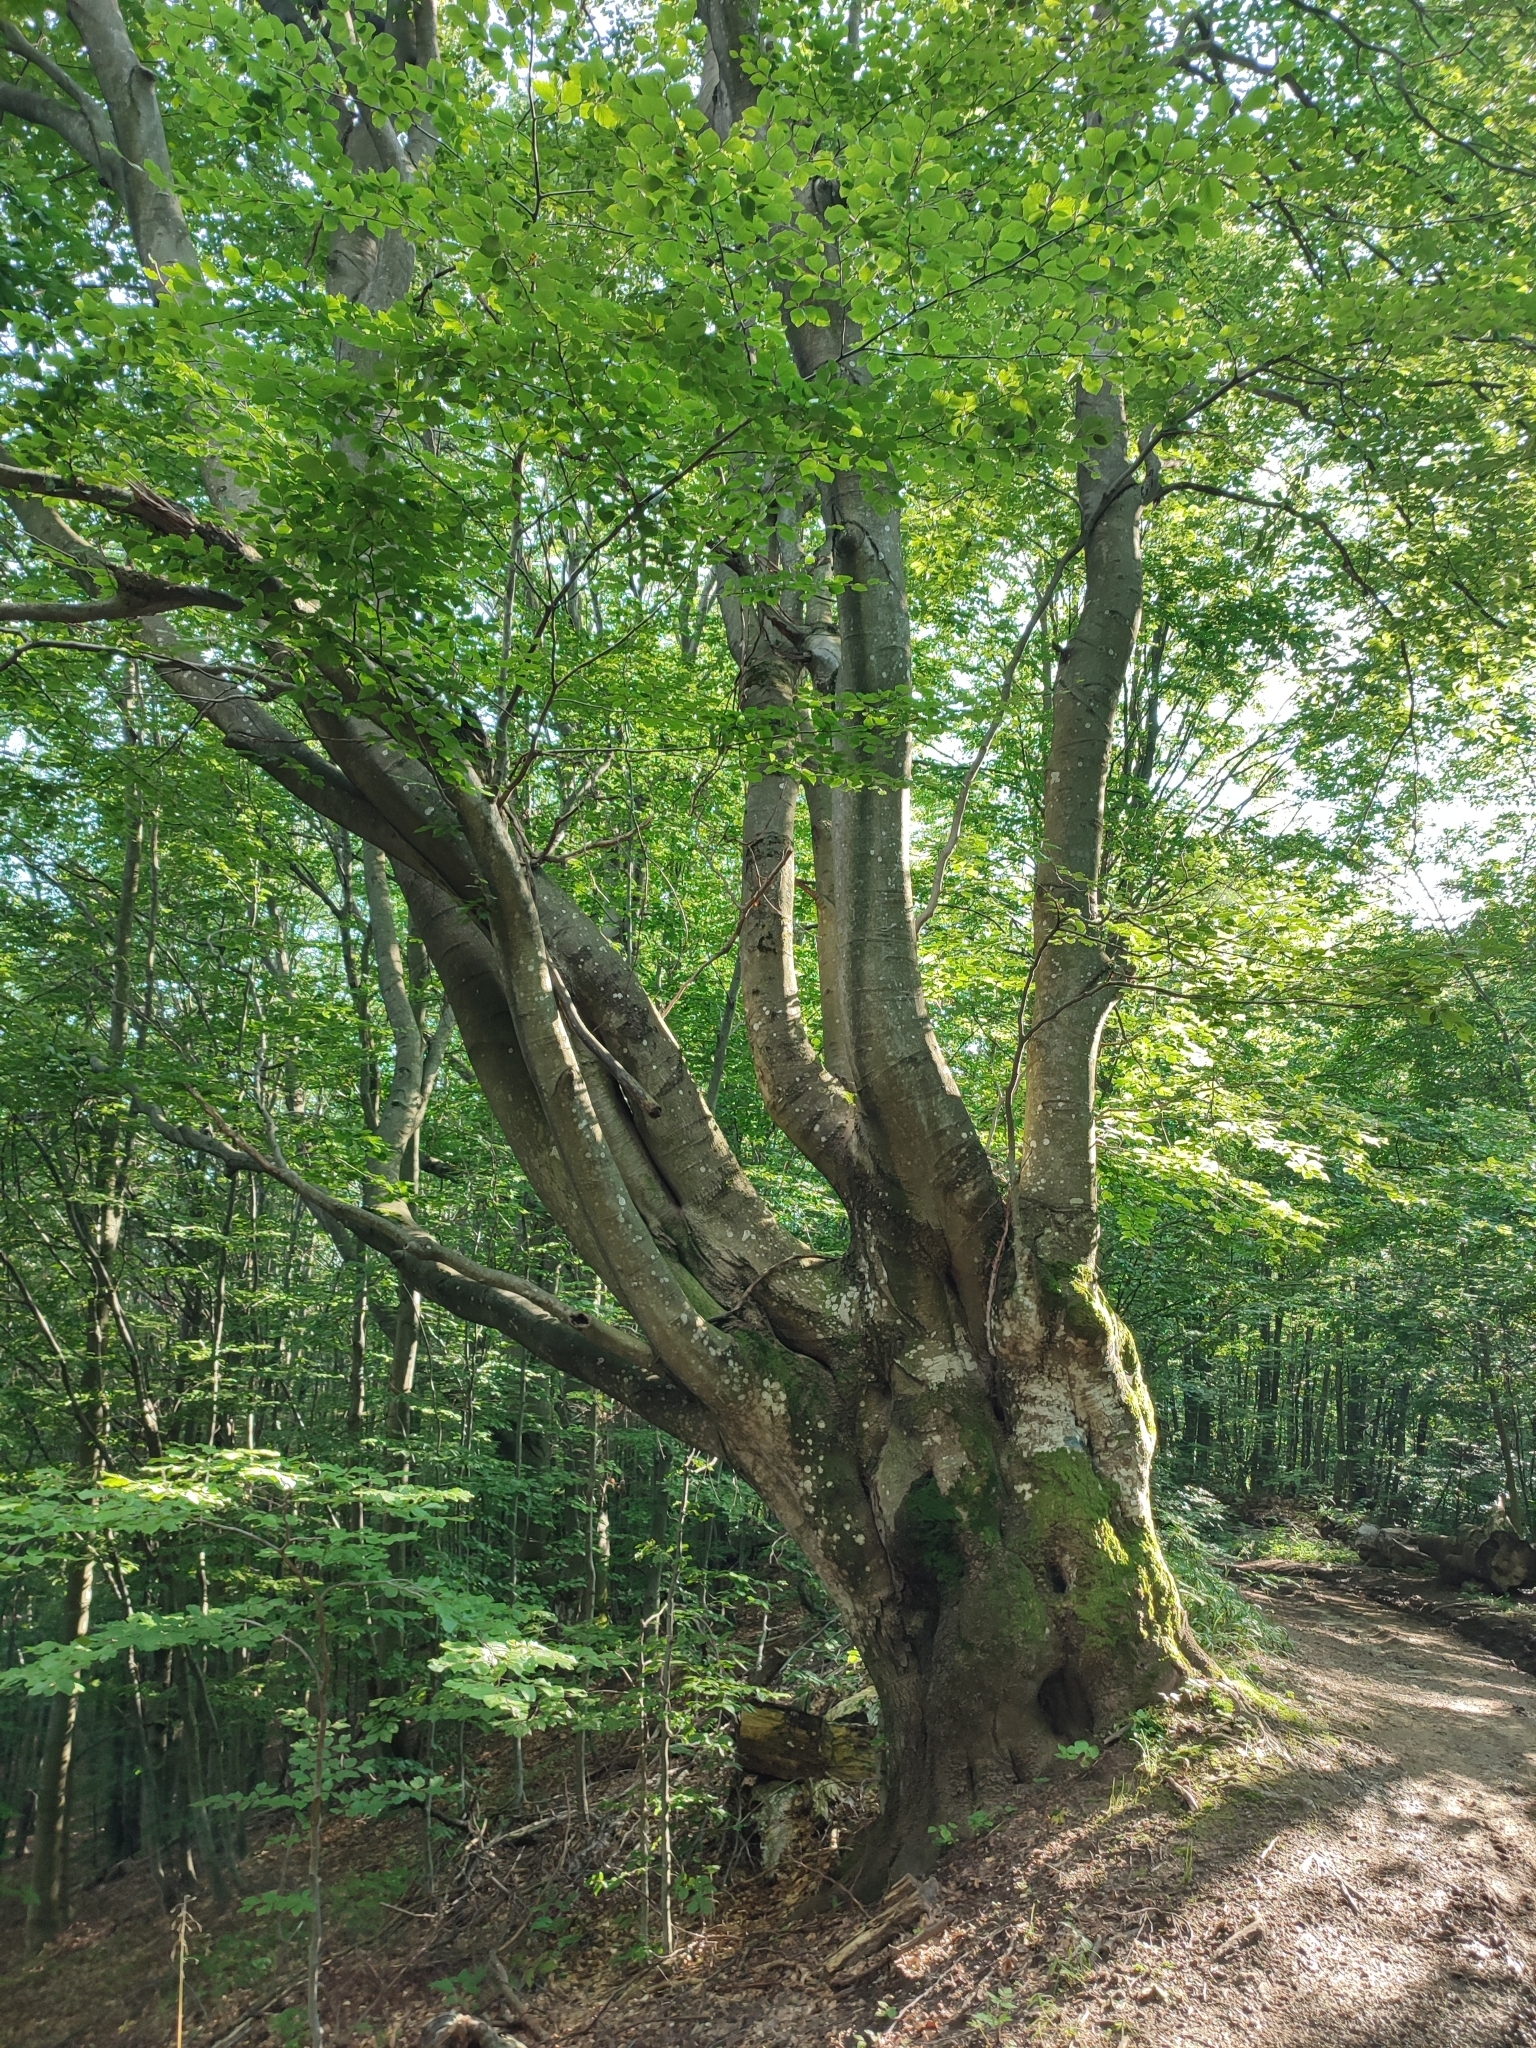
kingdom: Plantae
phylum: Tracheophyta
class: Magnoliopsida
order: Fagales
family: Fagaceae
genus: Fagus
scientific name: Fagus sylvatica
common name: Beech
